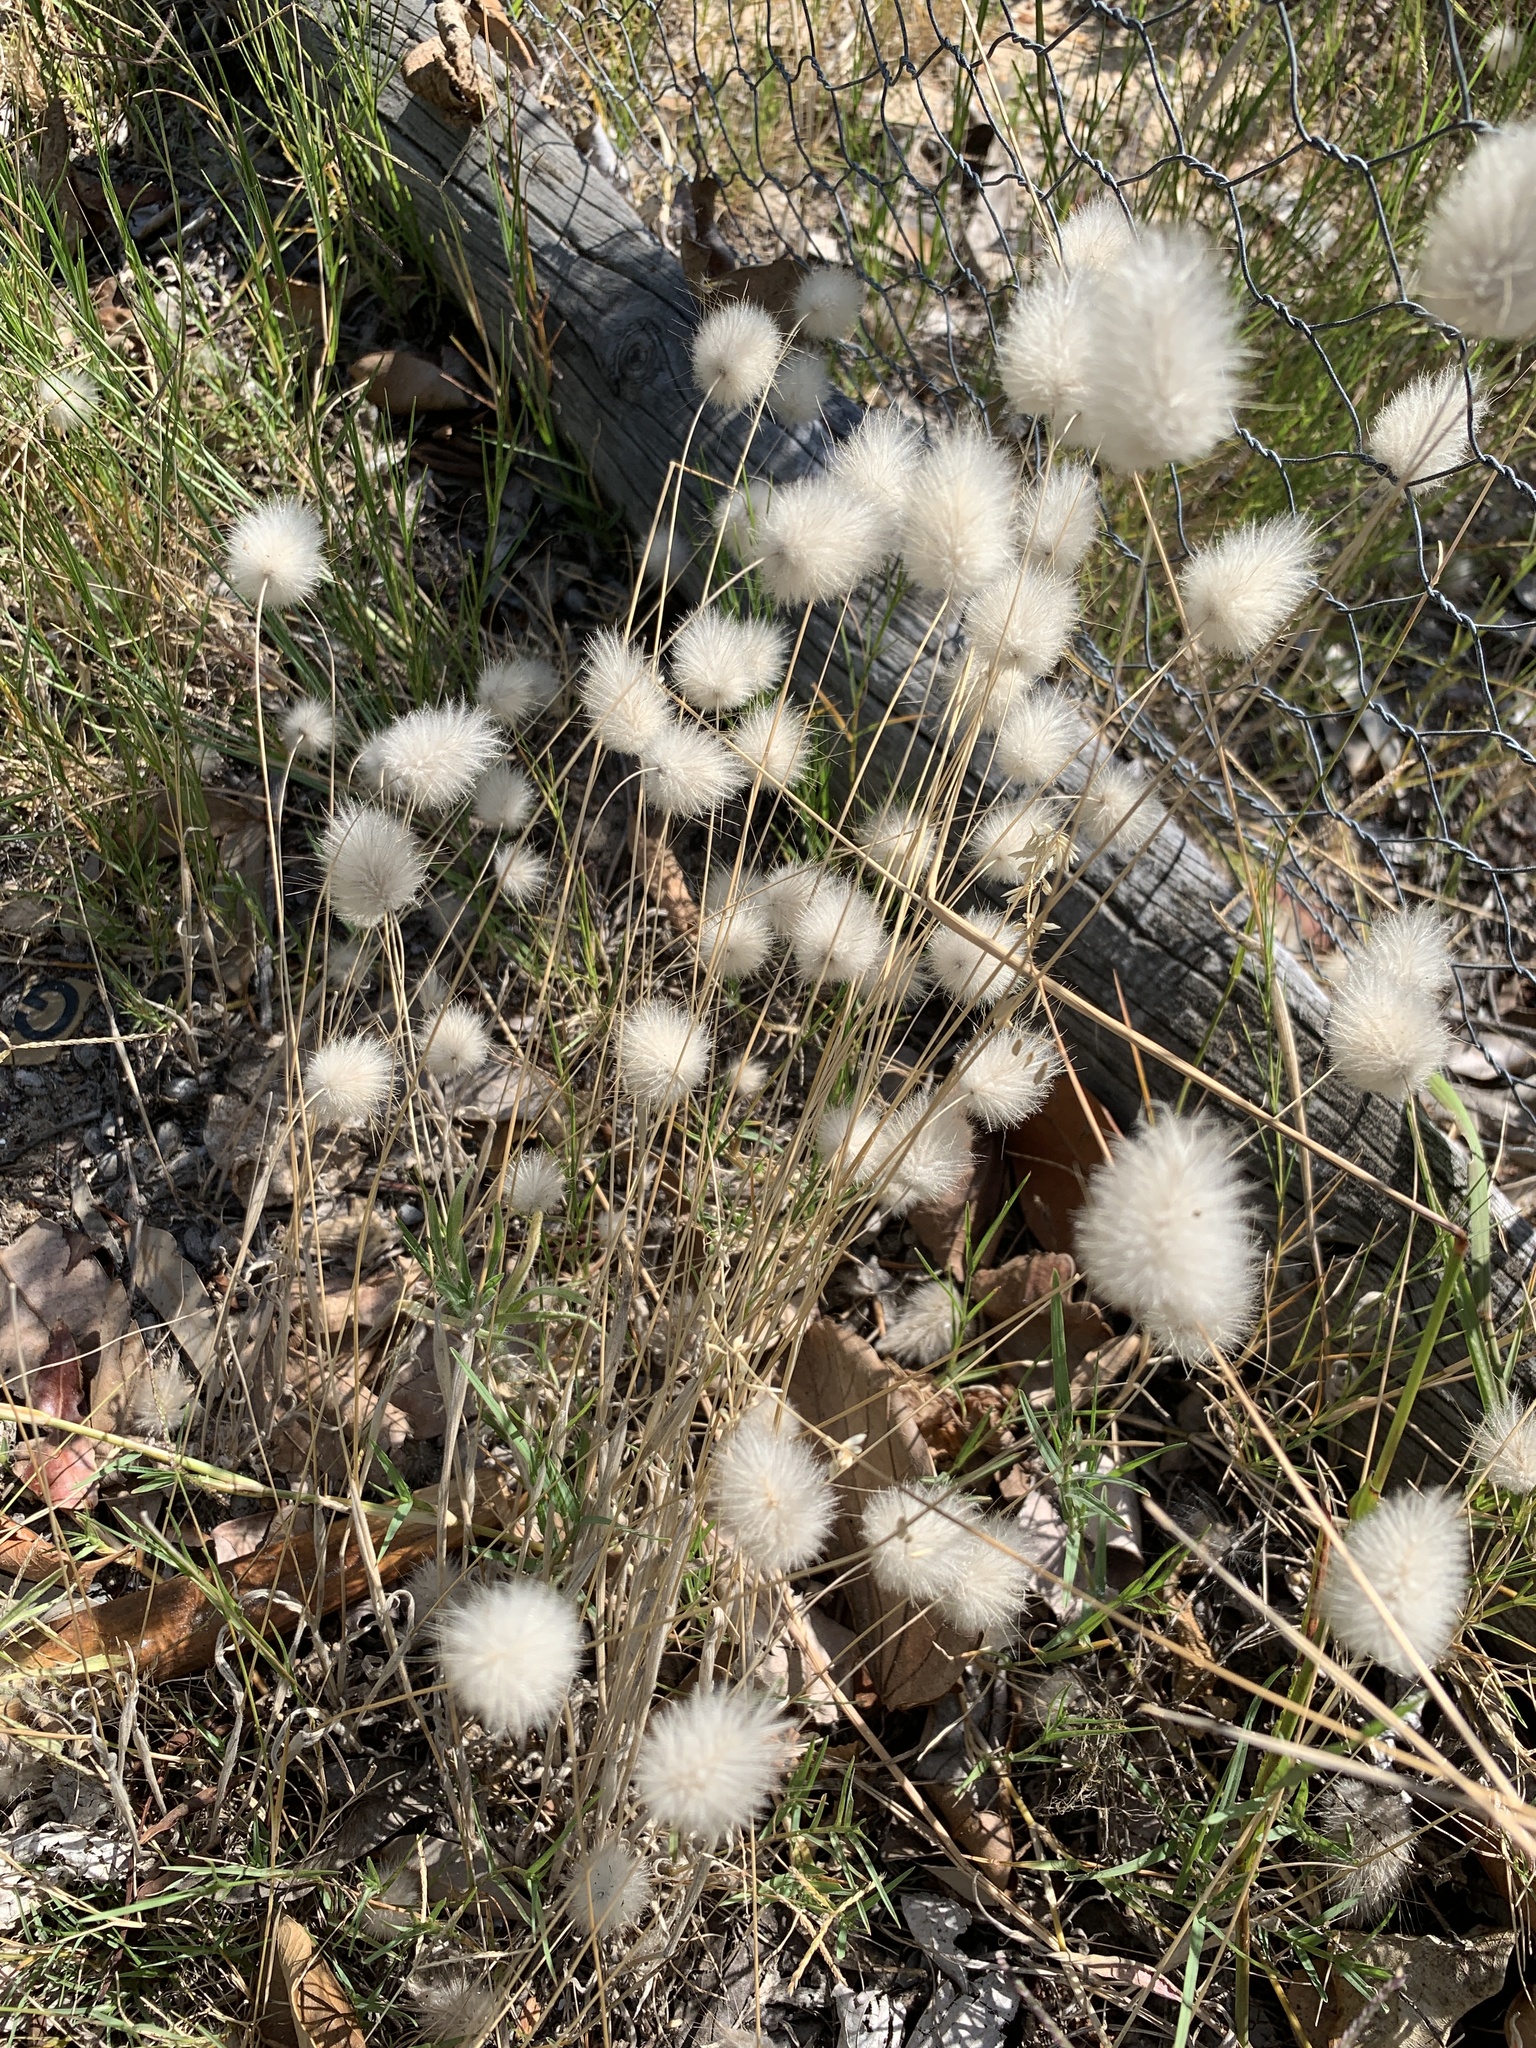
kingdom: Plantae
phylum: Tracheophyta
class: Liliopsida
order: Poales
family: Poaceae
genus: Lagurus
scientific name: Lagurus ovatus
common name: Hare's-tail
